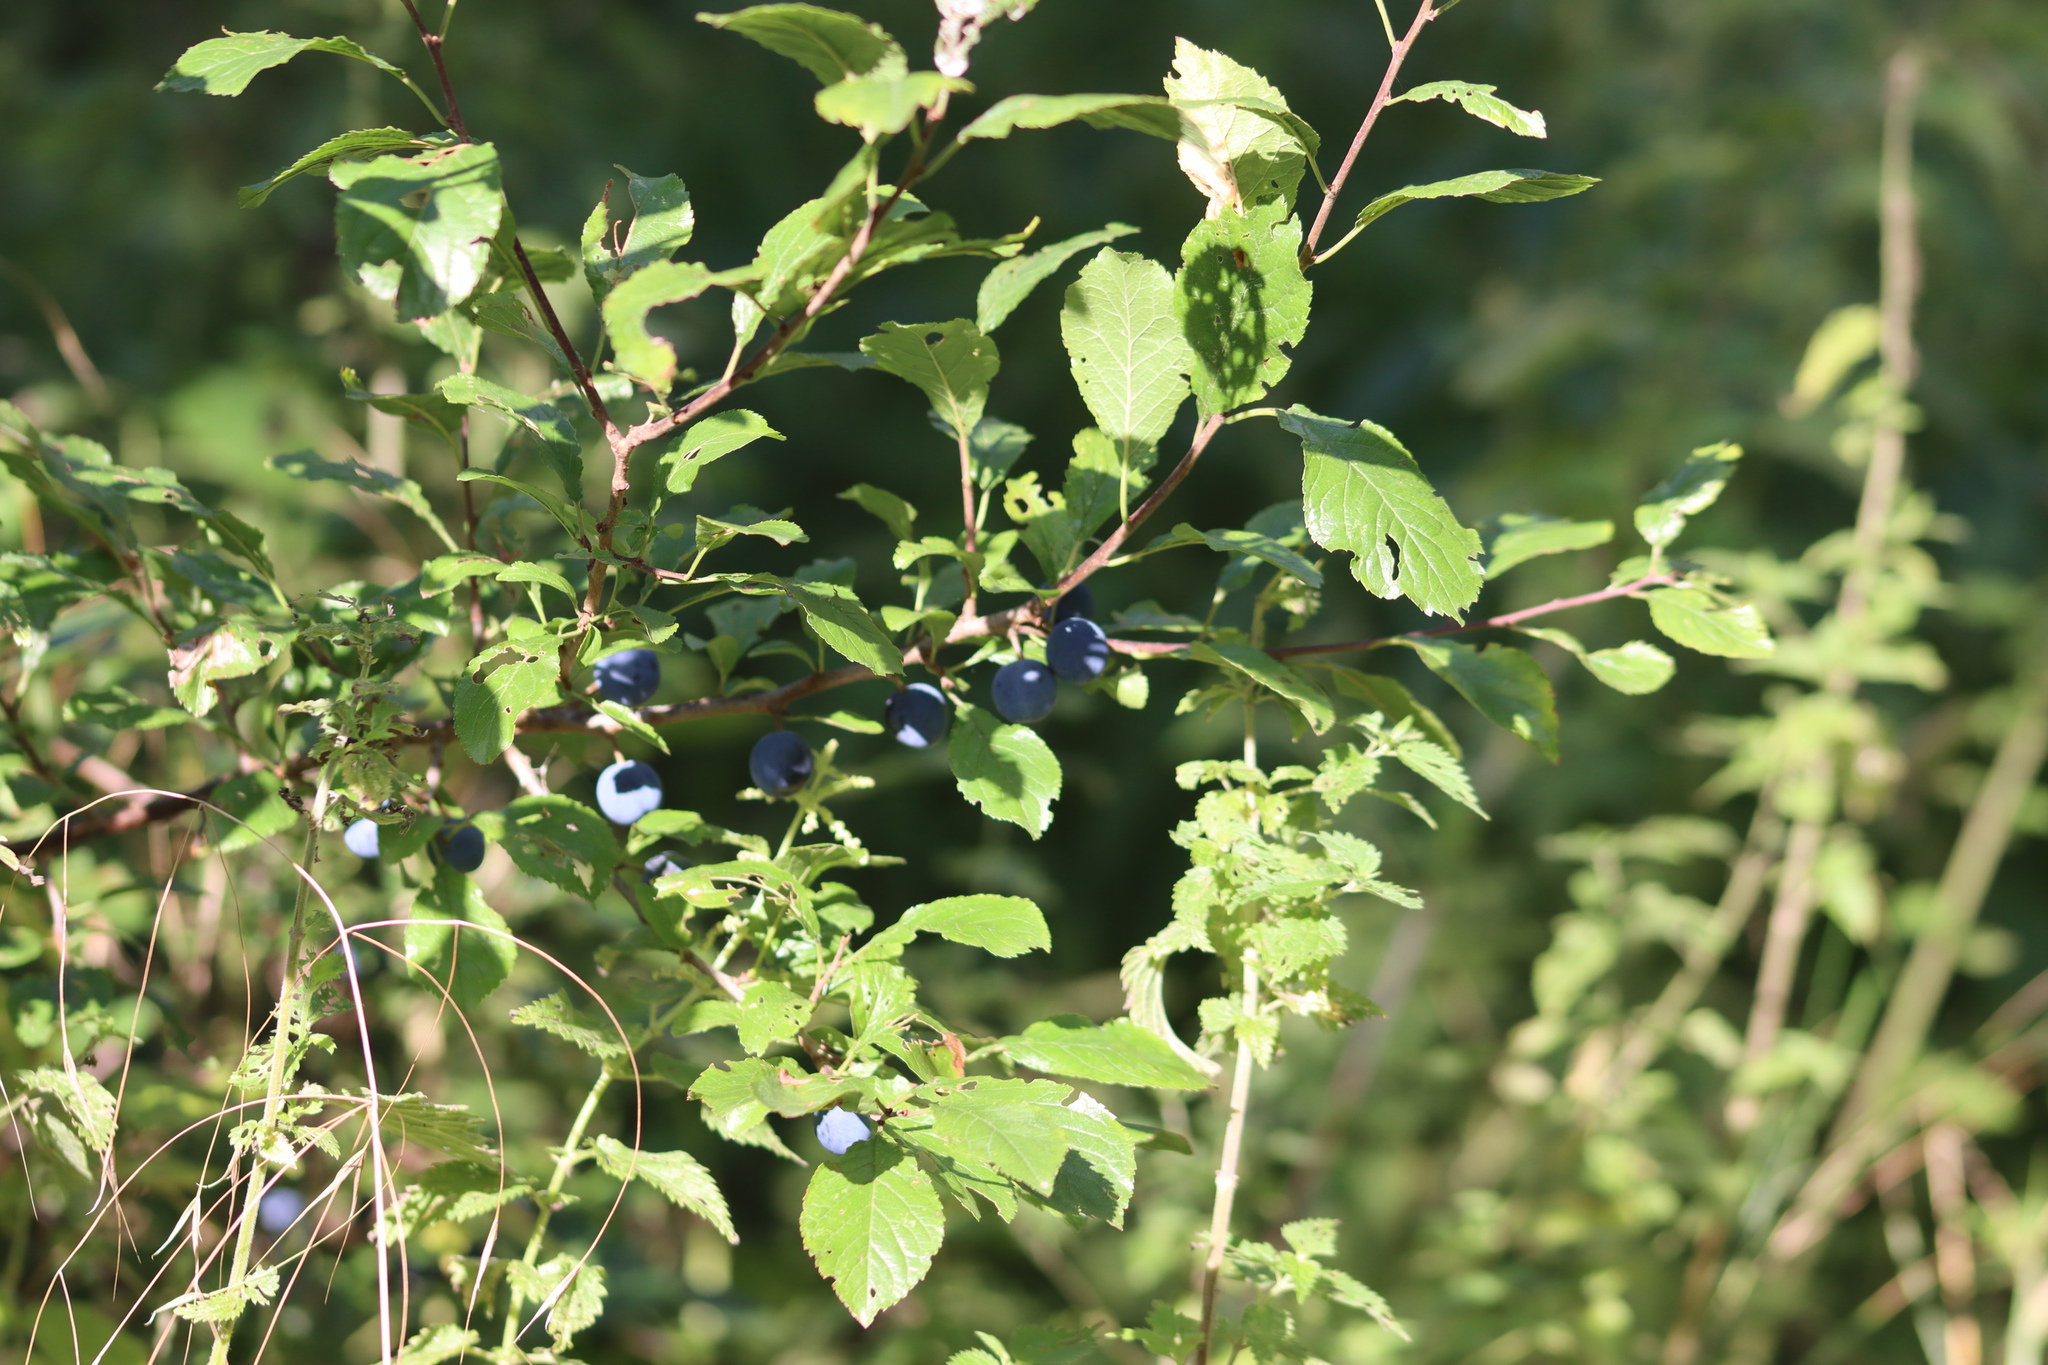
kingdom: Plantae
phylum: Tracheophyta
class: Magnoliopsida
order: Rosales
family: Rosaceae
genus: Prunus
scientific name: Prunus spinosa
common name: Blackthorn
